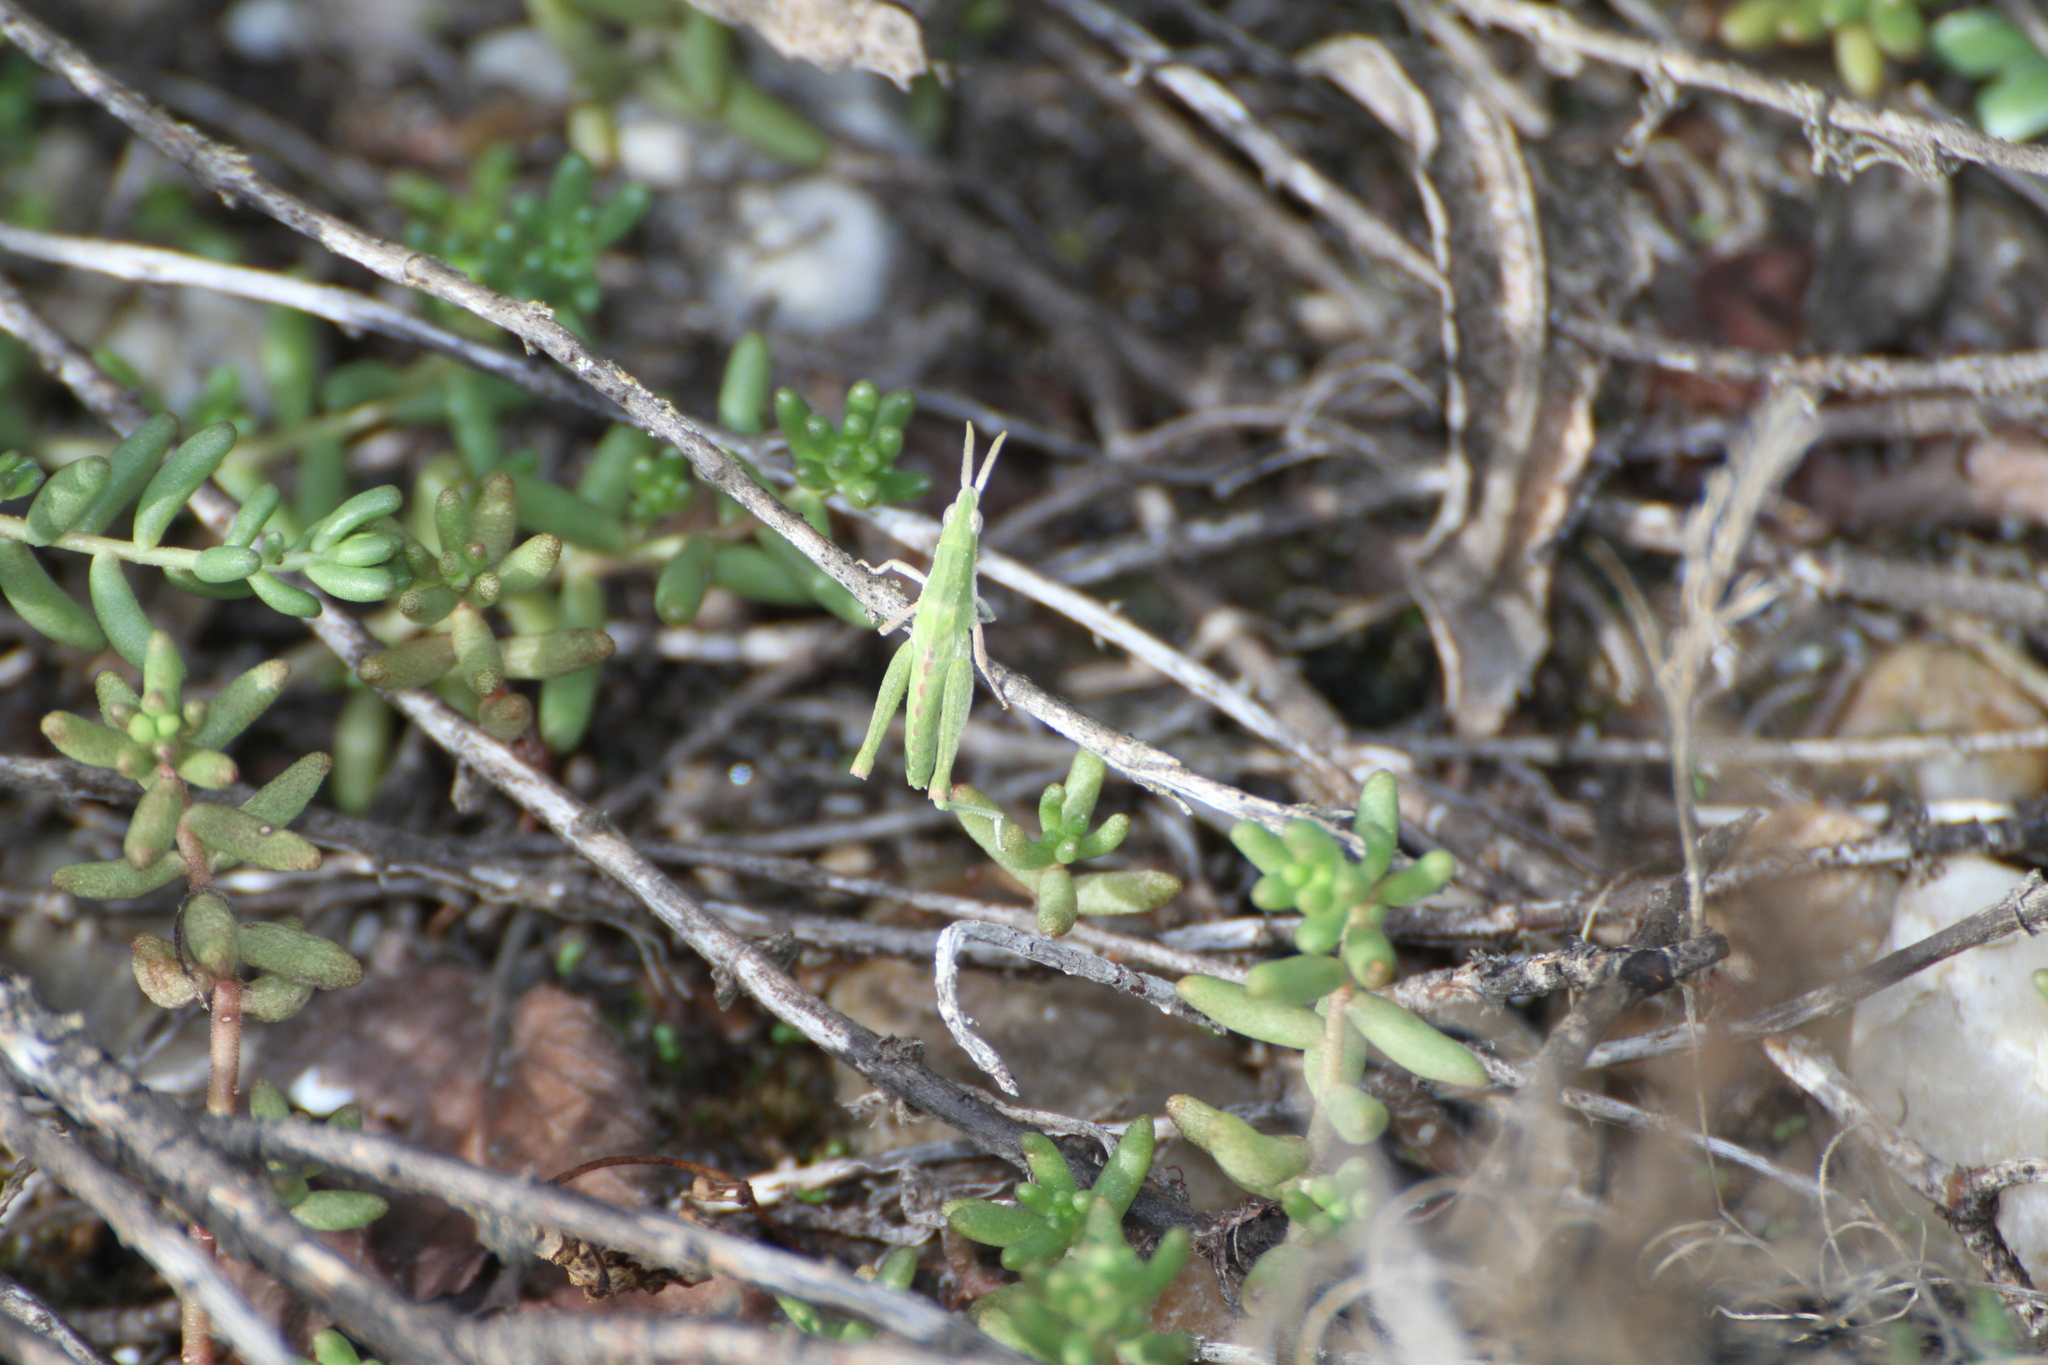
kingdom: Animalia
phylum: Arthropoda
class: Insecta
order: Orthoptera
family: Pyrgomorphidae
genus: Pyrgomorpha
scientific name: Pyrgomorpha conica
